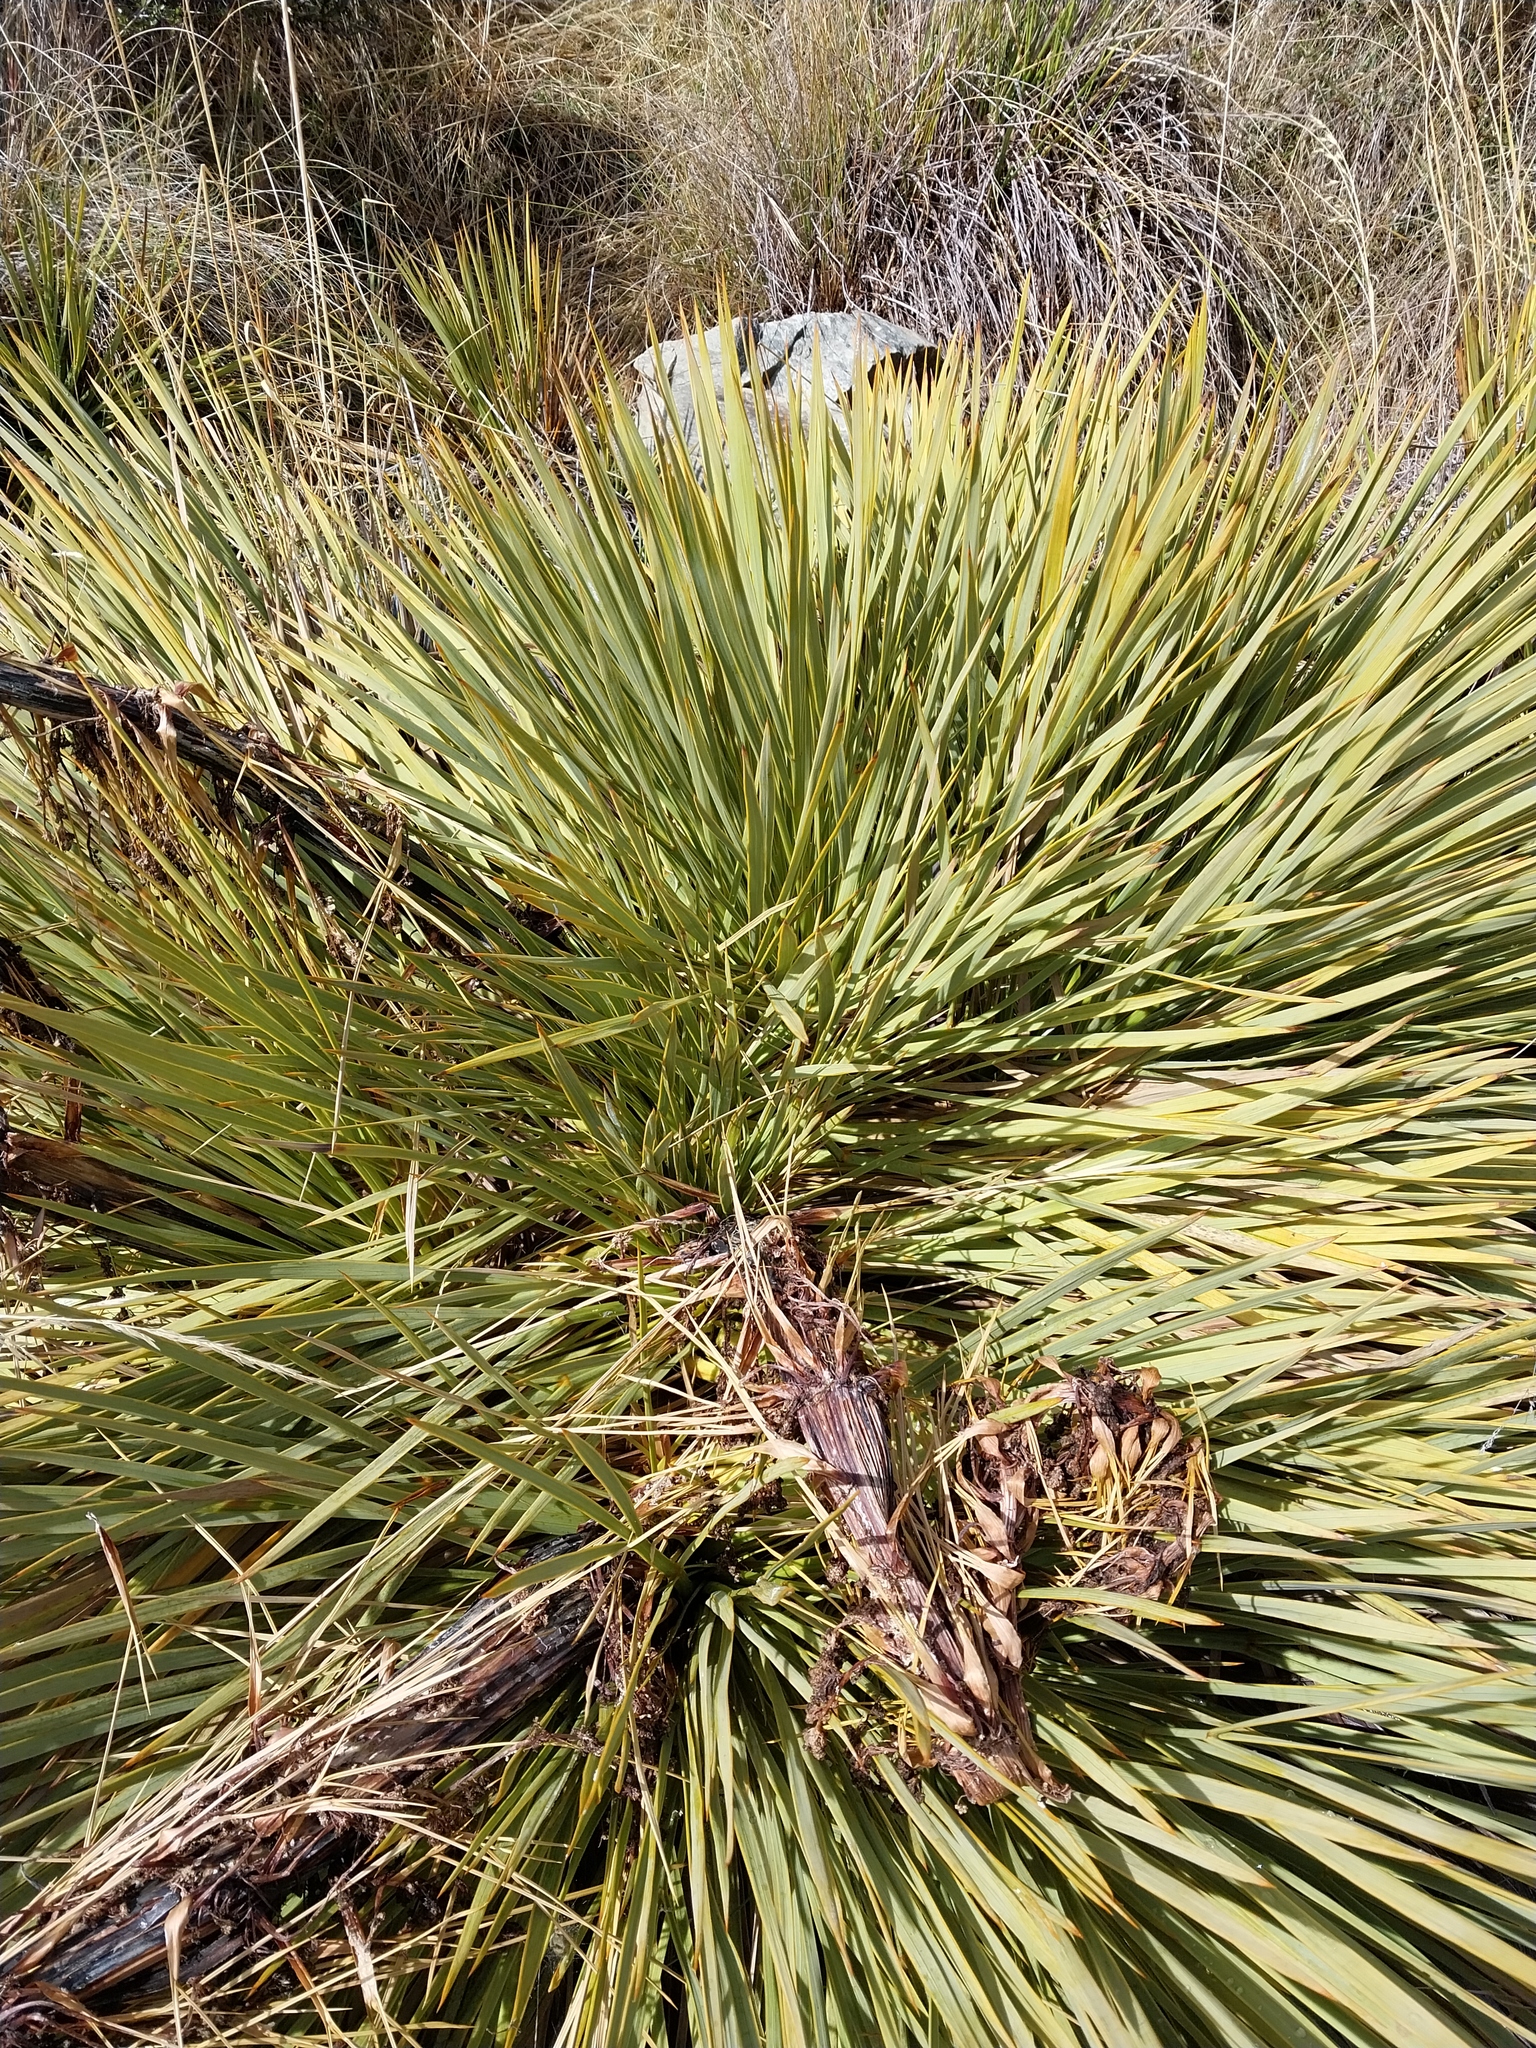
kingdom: Plantae
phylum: Tracheophyta
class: Magnoliopsida
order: Apiales
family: Apiaceae
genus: Aciphylla
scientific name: Aciphylla aurea
